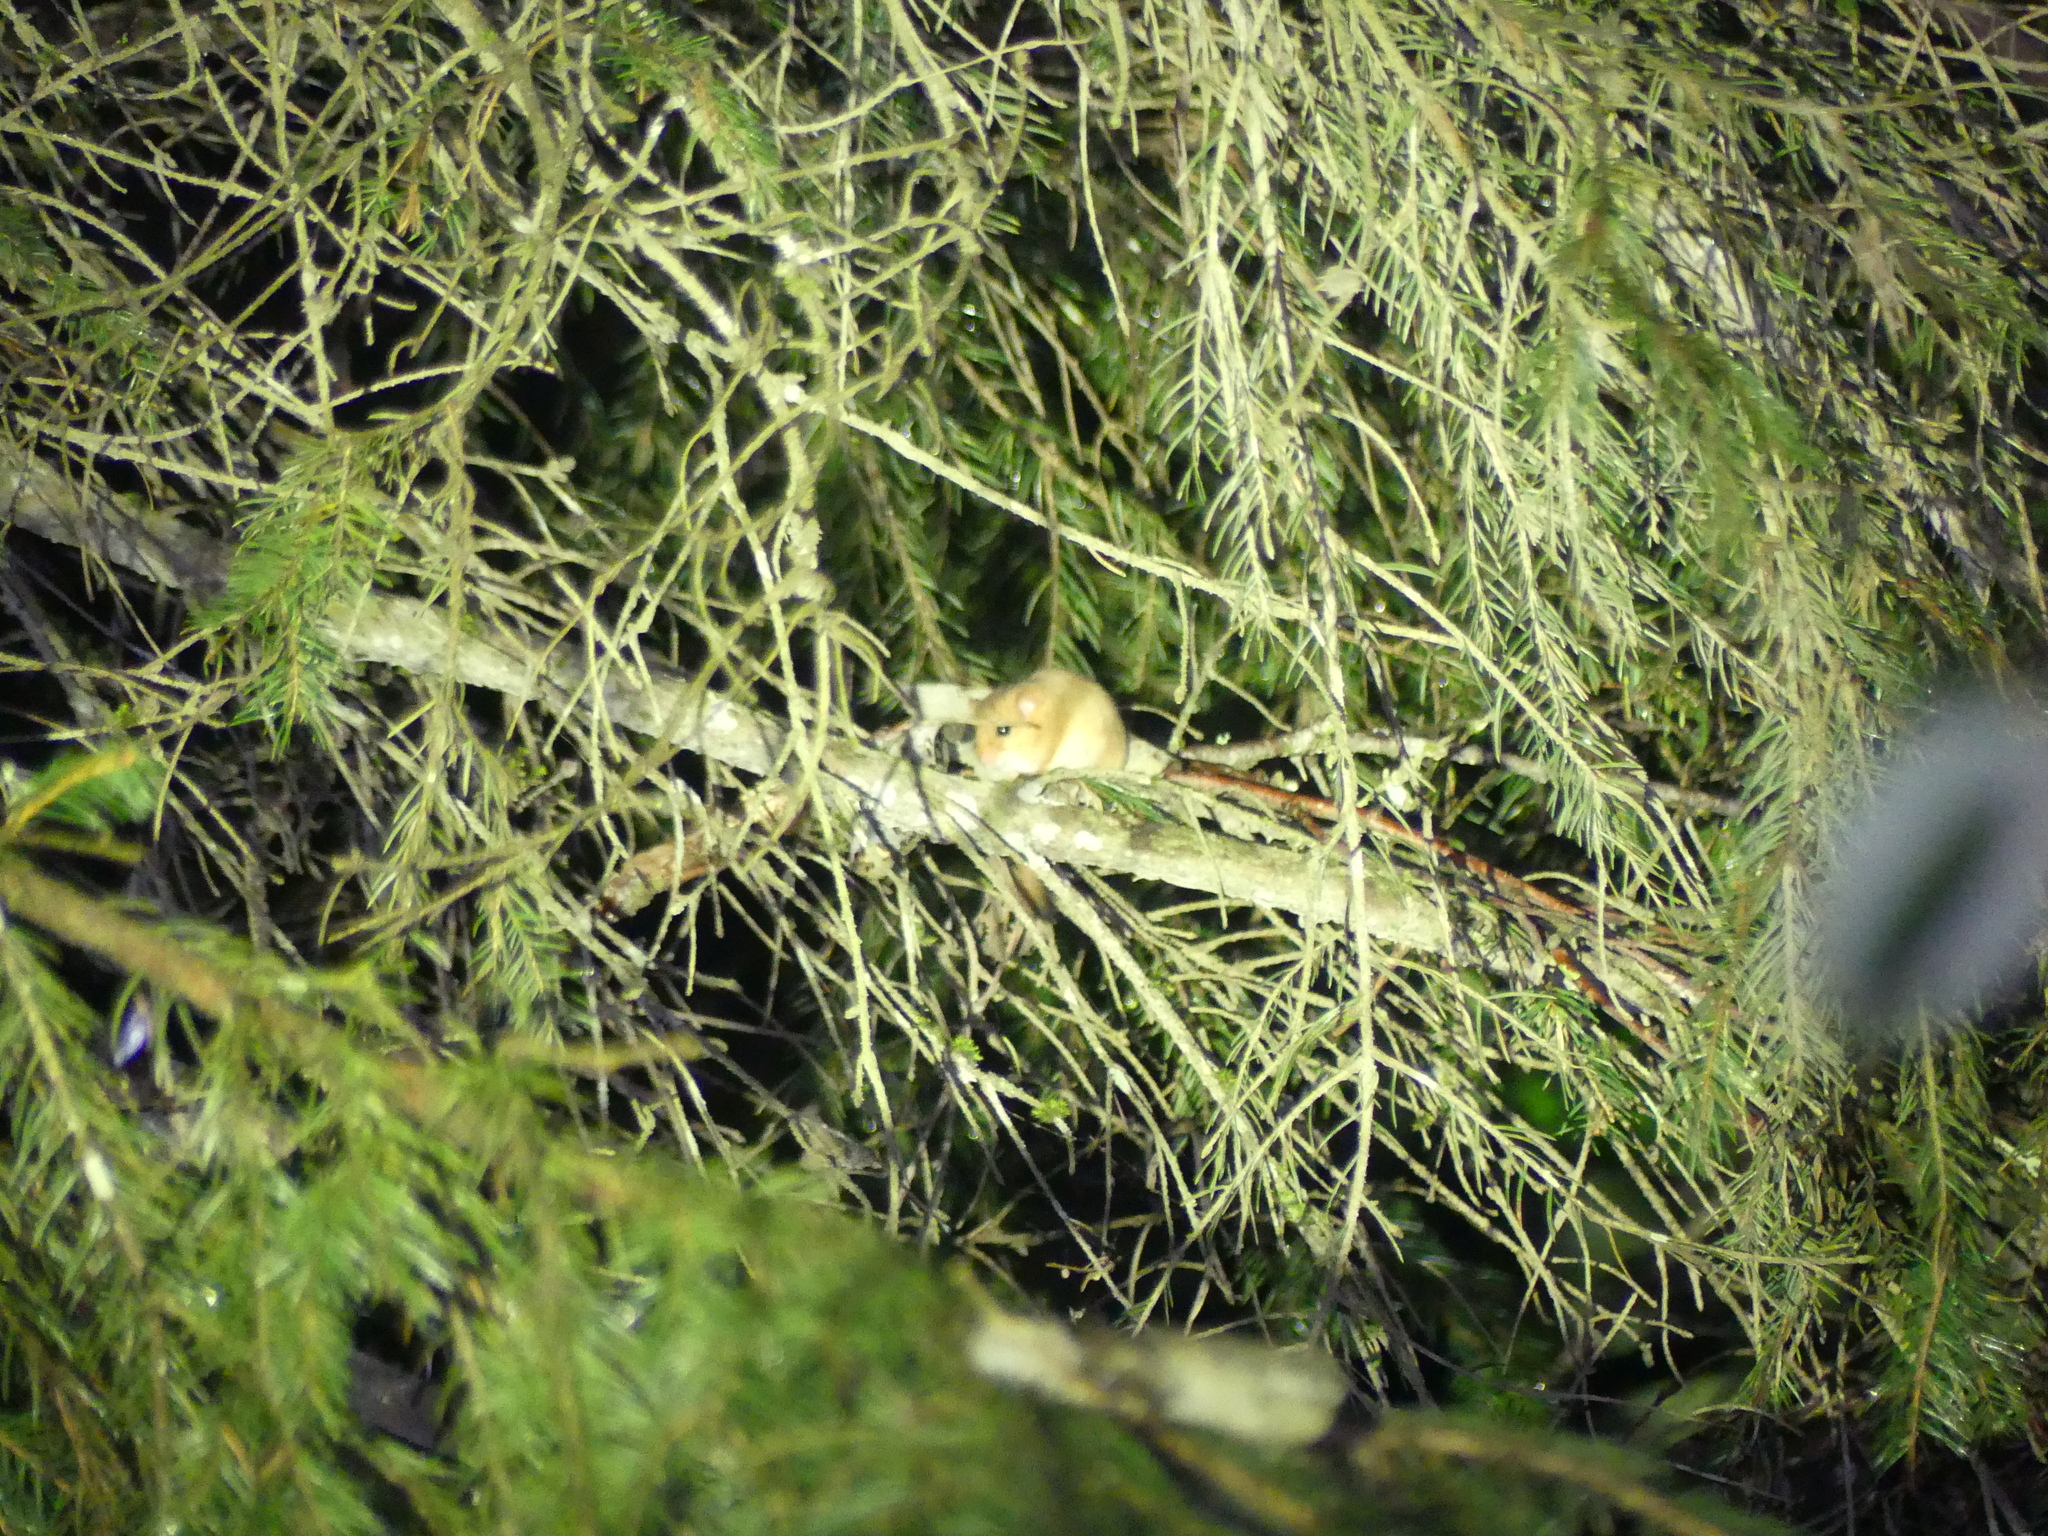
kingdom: Animalia
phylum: Chordata
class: Mammalia
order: Rodentia
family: Gliridae
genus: Muscardinus
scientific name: Muscardinus avellanarius
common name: Hazel dormouse
